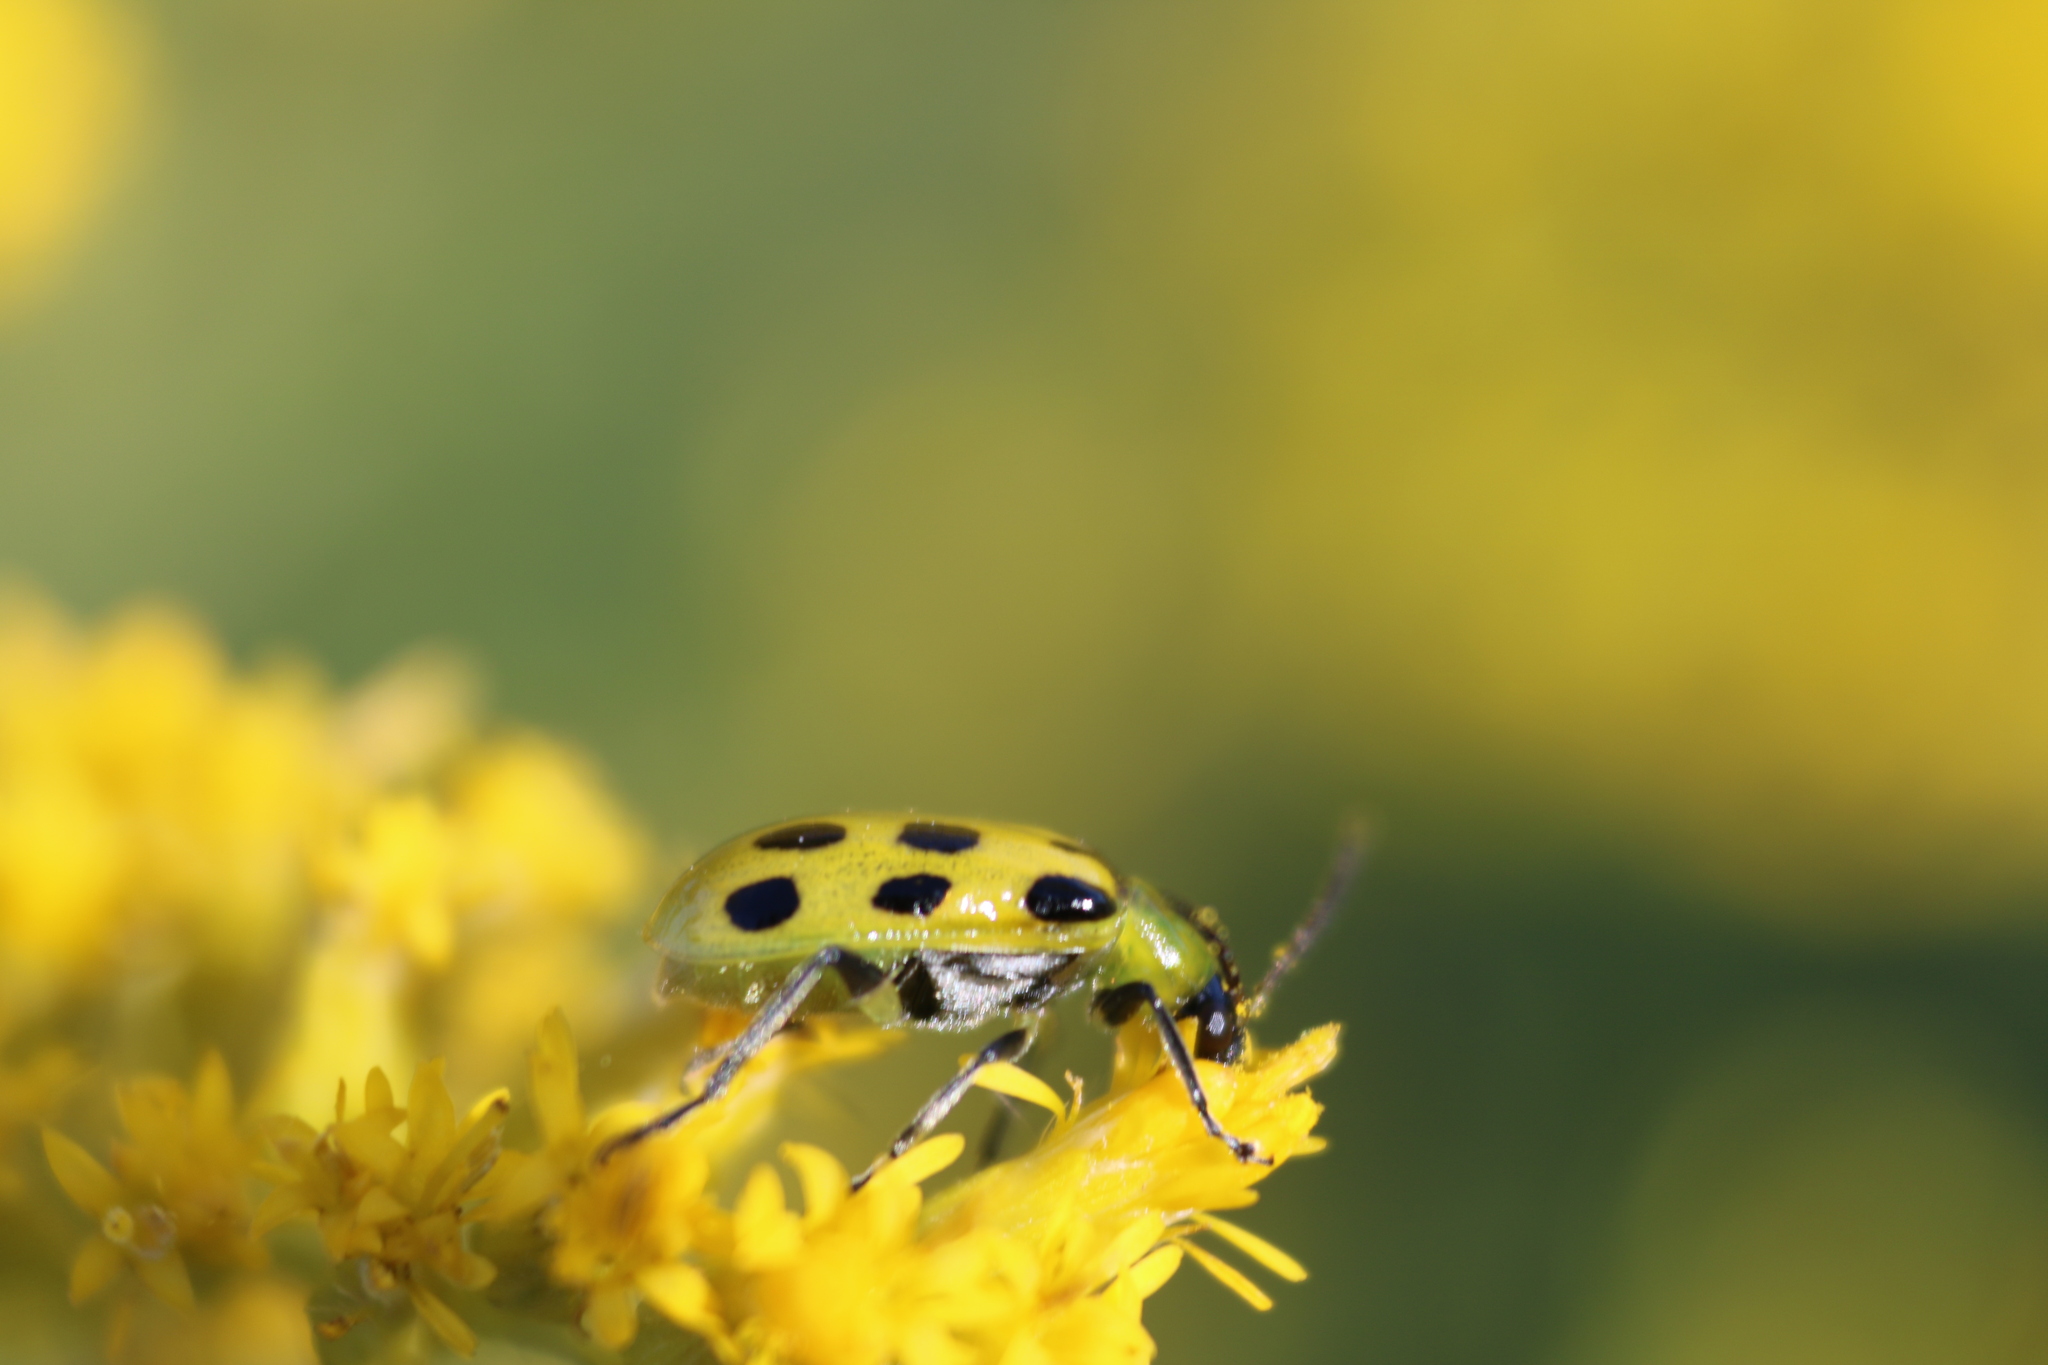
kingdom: Animalia
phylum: Arthropoda
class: Insecta
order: Coleoptera
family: Chrysomelidae
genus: Diabrotica
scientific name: Diabrotica undecimpunctata
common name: Spotted cucumber beetle
